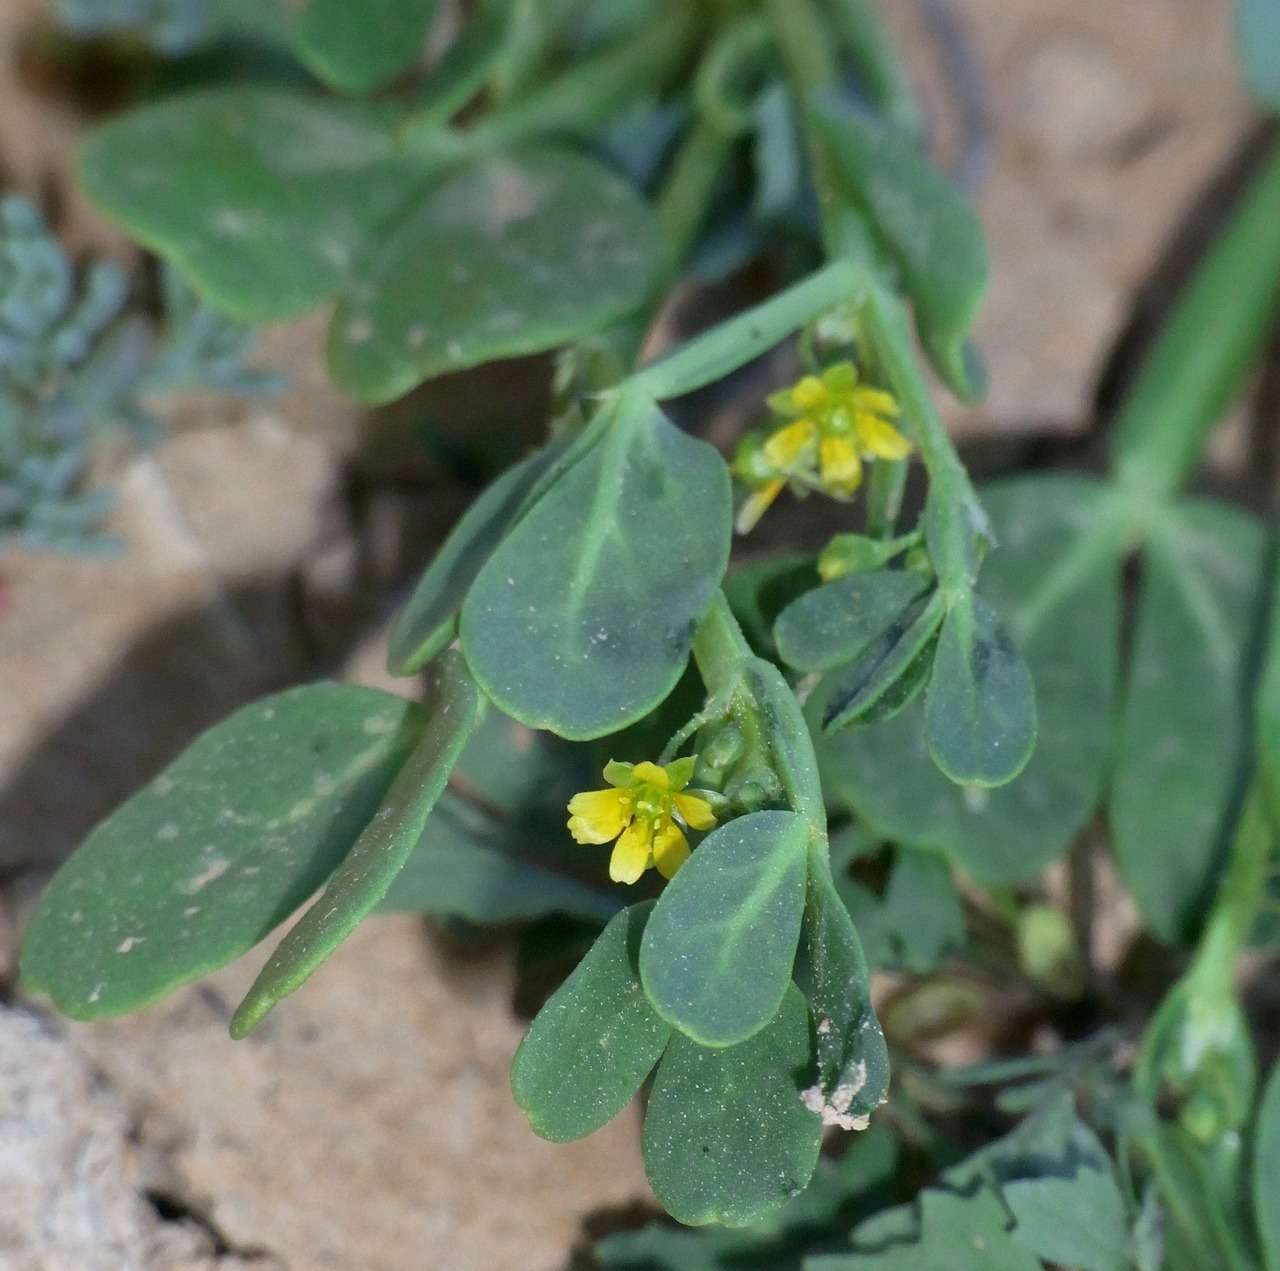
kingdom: Plantae
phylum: Tracheophyta
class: Magnoliopsida
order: Zygophyllales
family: Zygophyllaceae
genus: Roepera
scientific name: Roepera apiculata
